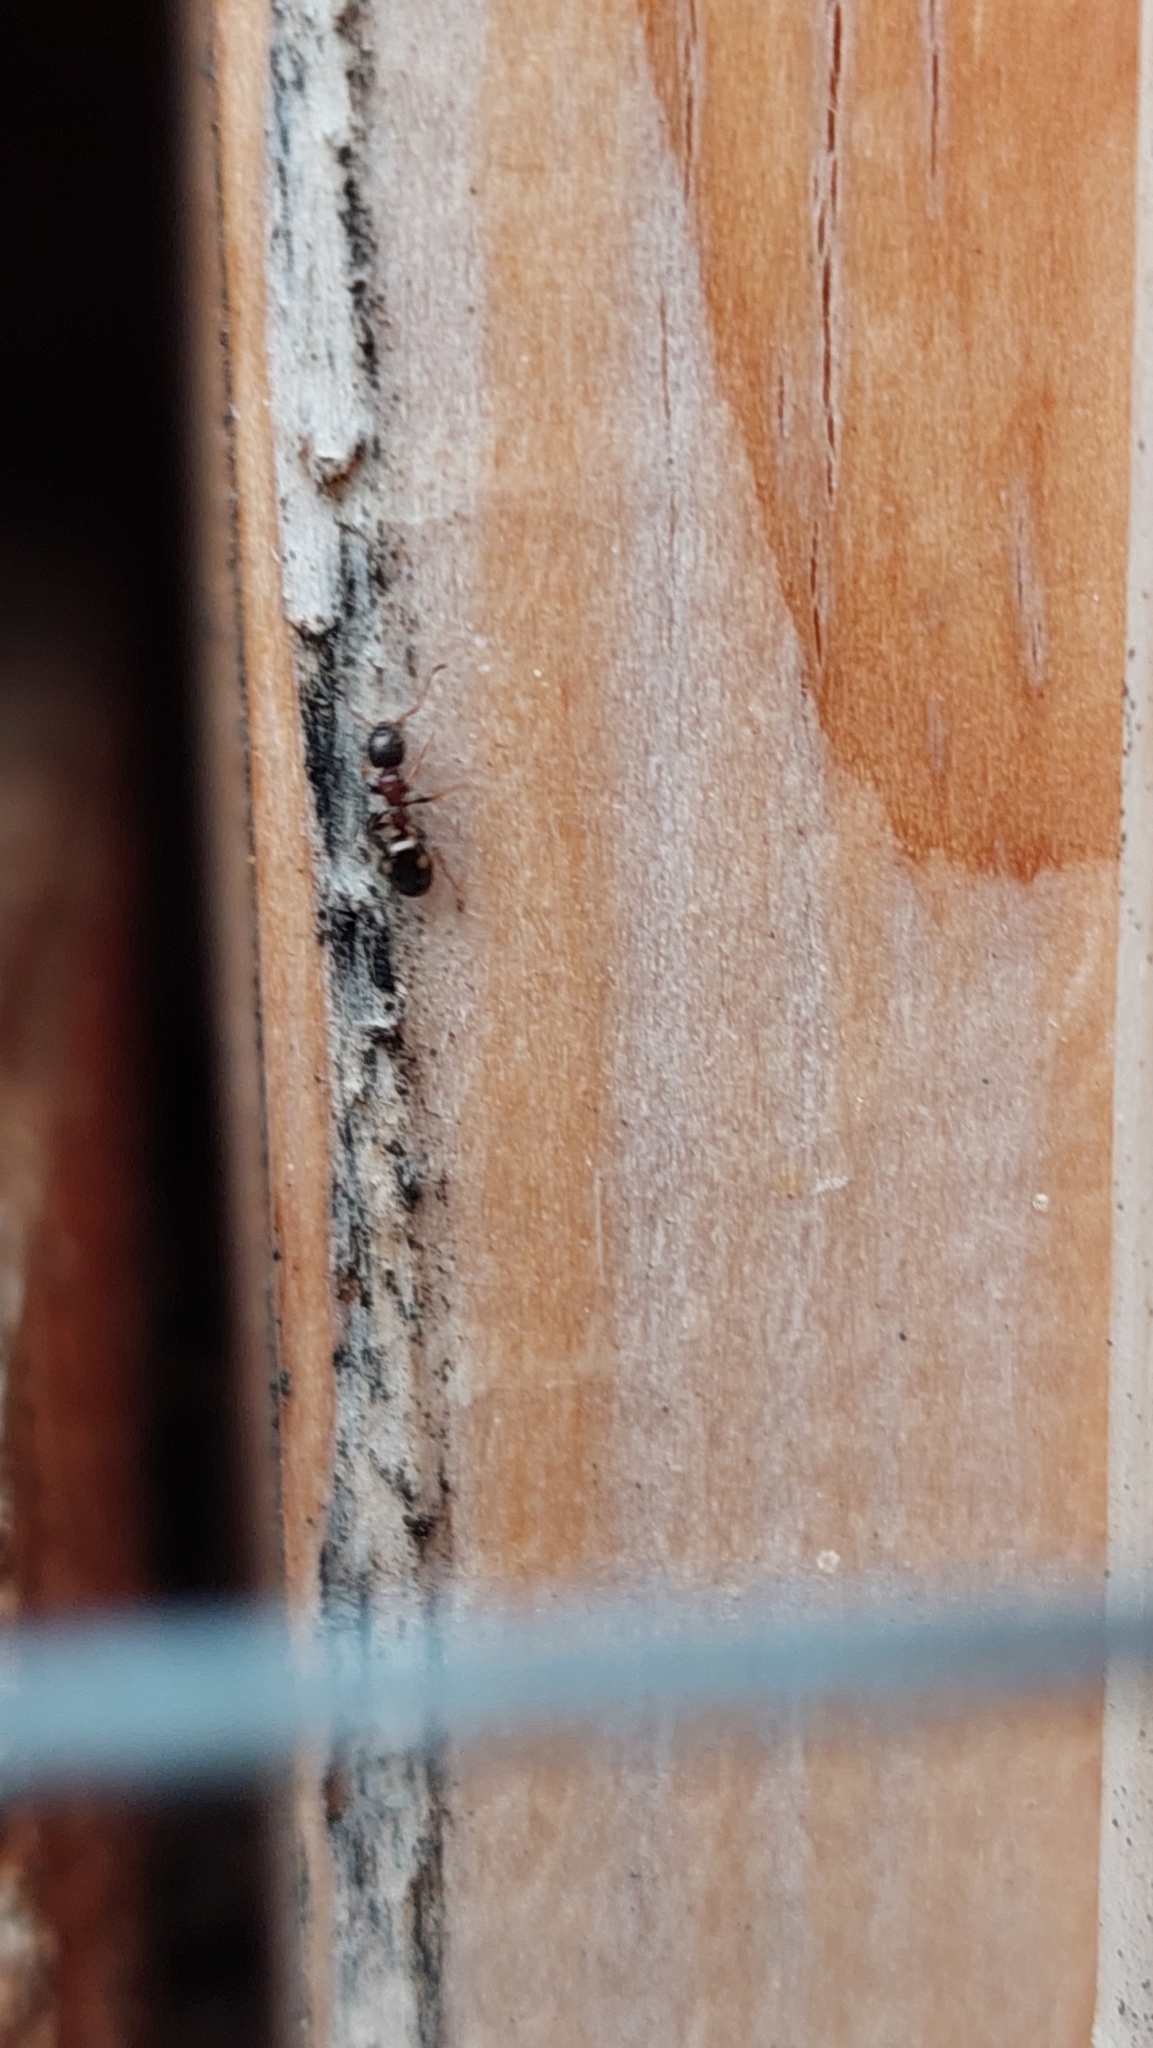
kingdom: Animalia
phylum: Arthropoda
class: Insecta
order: Hymenoptera
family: Formicidae
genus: Dolichoderus
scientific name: Dolichoderus quadripunctatus
